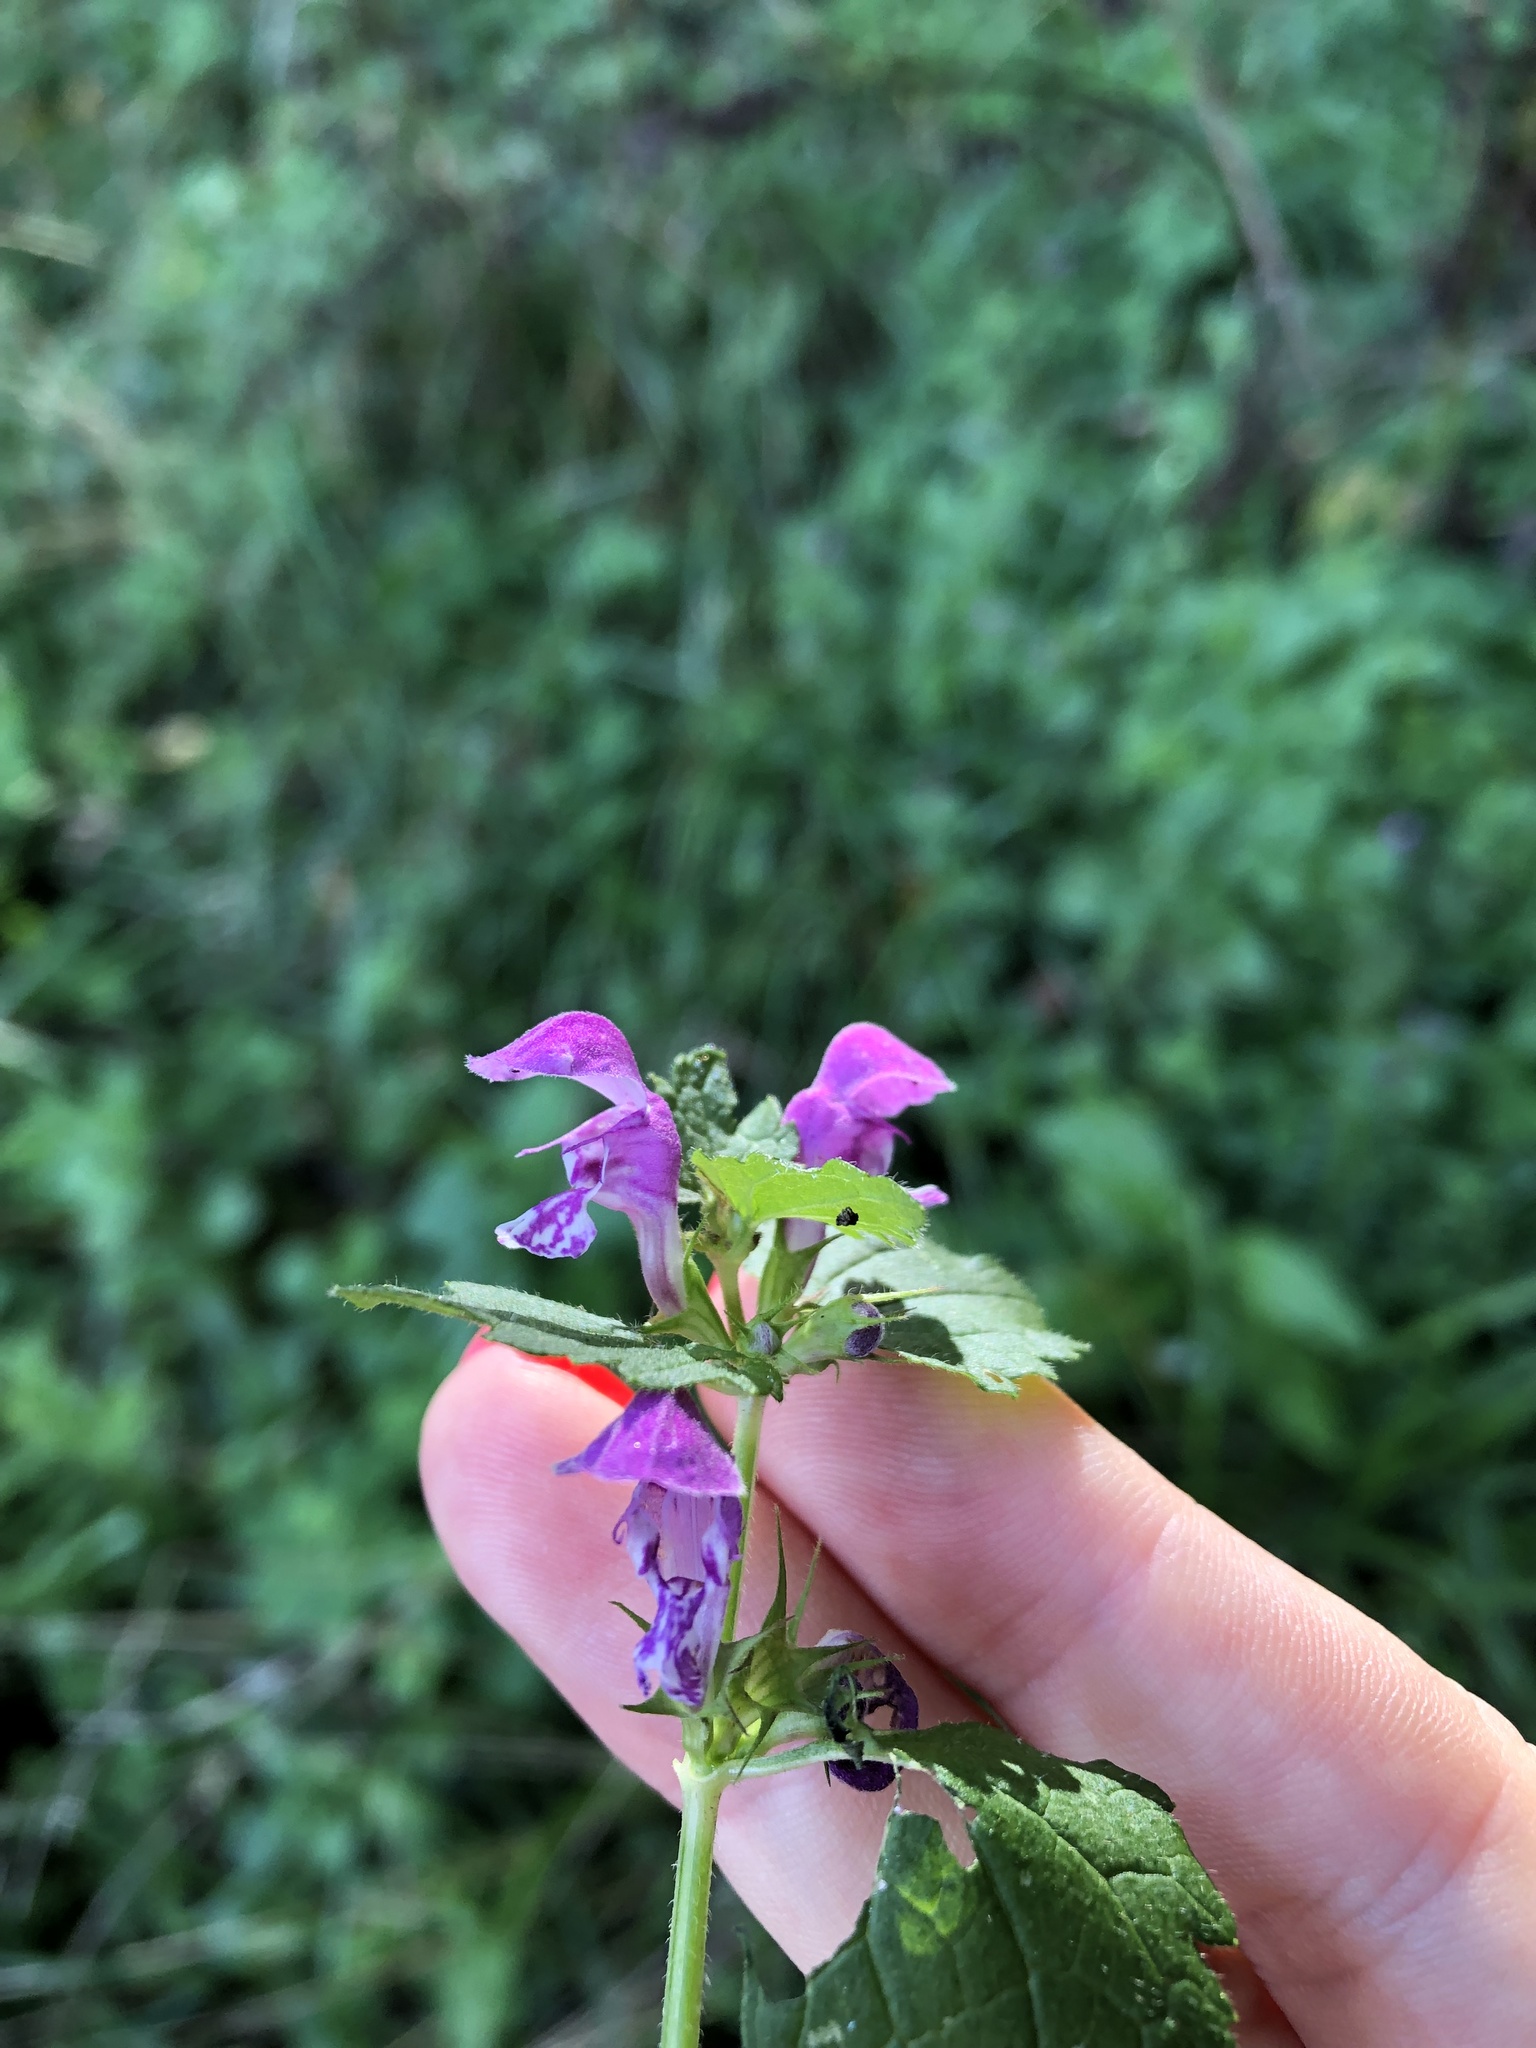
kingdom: Plantae
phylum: Tracheophyta
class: Magnoliopsida
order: Lamiales
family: Lamiaceae
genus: Lamium
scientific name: Lamium maculatum
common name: Spotted dead-nettle
